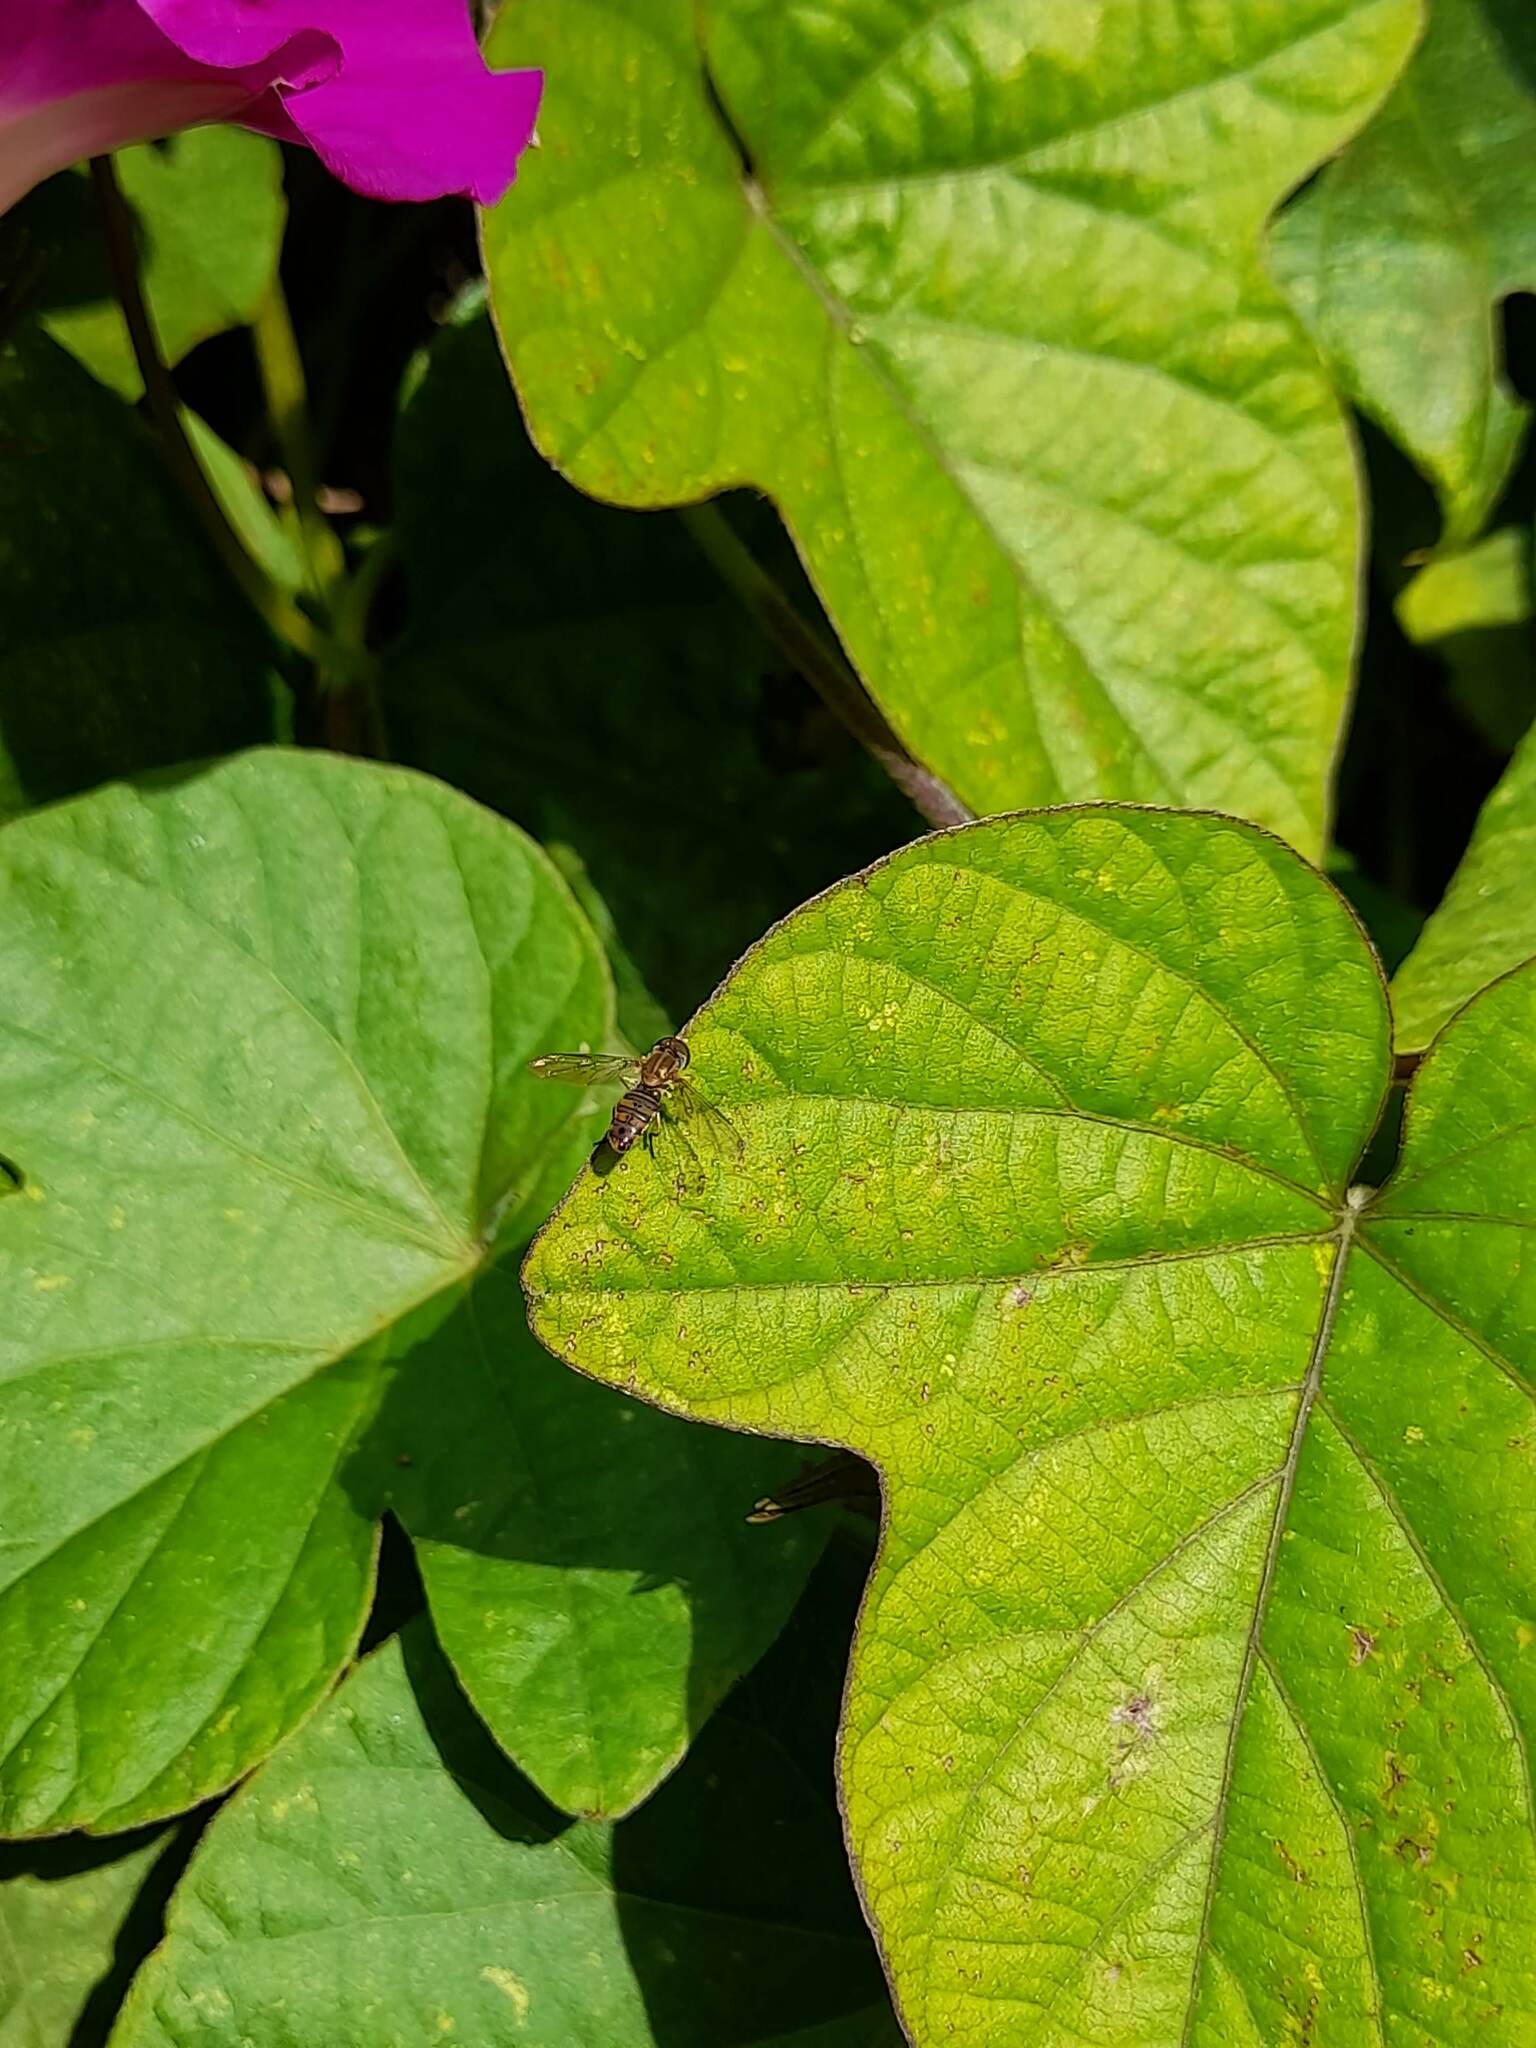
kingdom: Animalia
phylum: Arthropoda
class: Insecta
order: Diptera
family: Syrphidae
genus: Toxomerus
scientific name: Toxomerus
